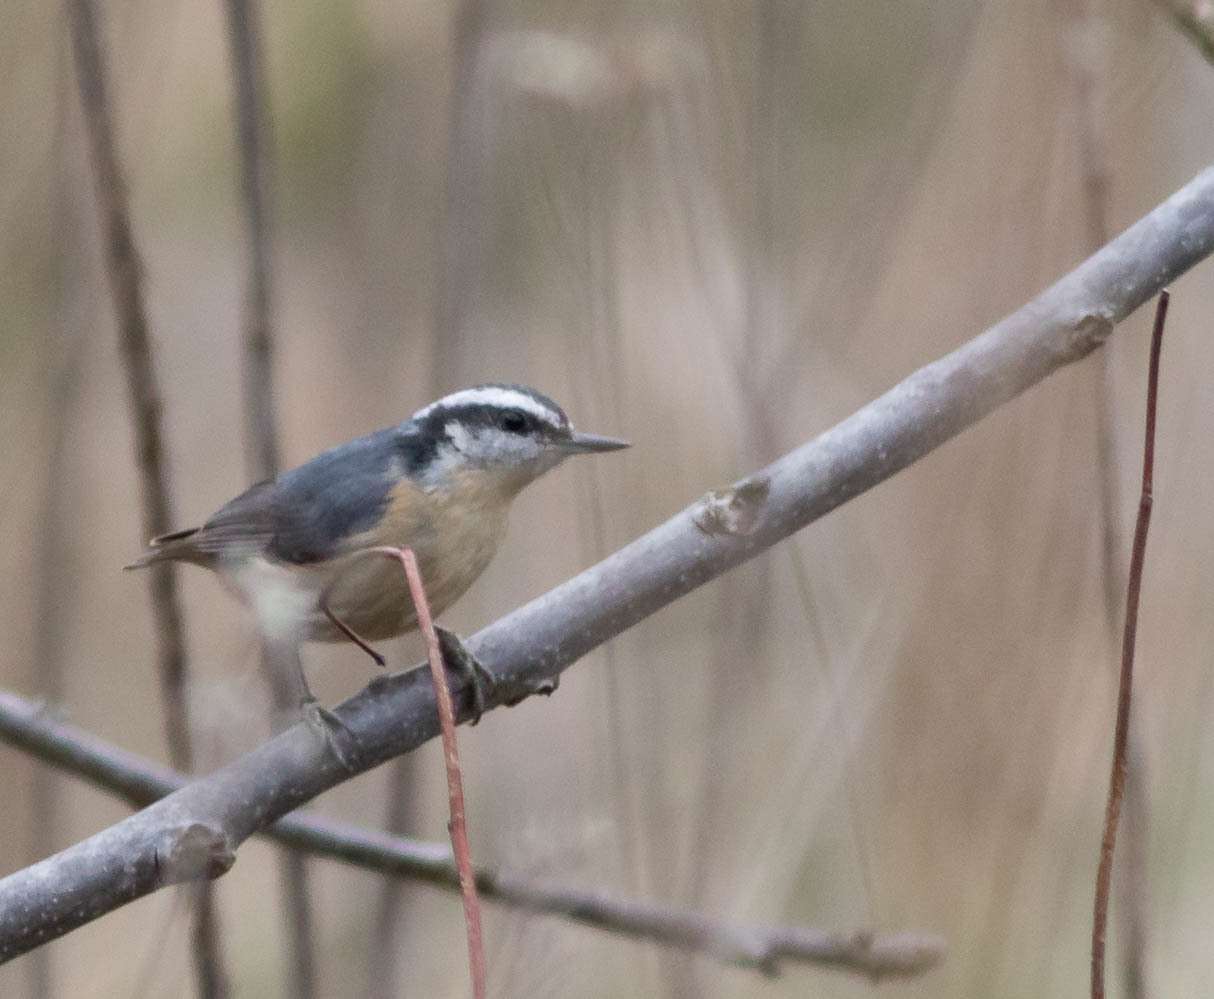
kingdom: Animalia
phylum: Chordata
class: Aves
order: Passeriformes
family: Sittidae
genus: Sitta
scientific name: Sitta canadensis
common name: Red-breasted nuthatch
